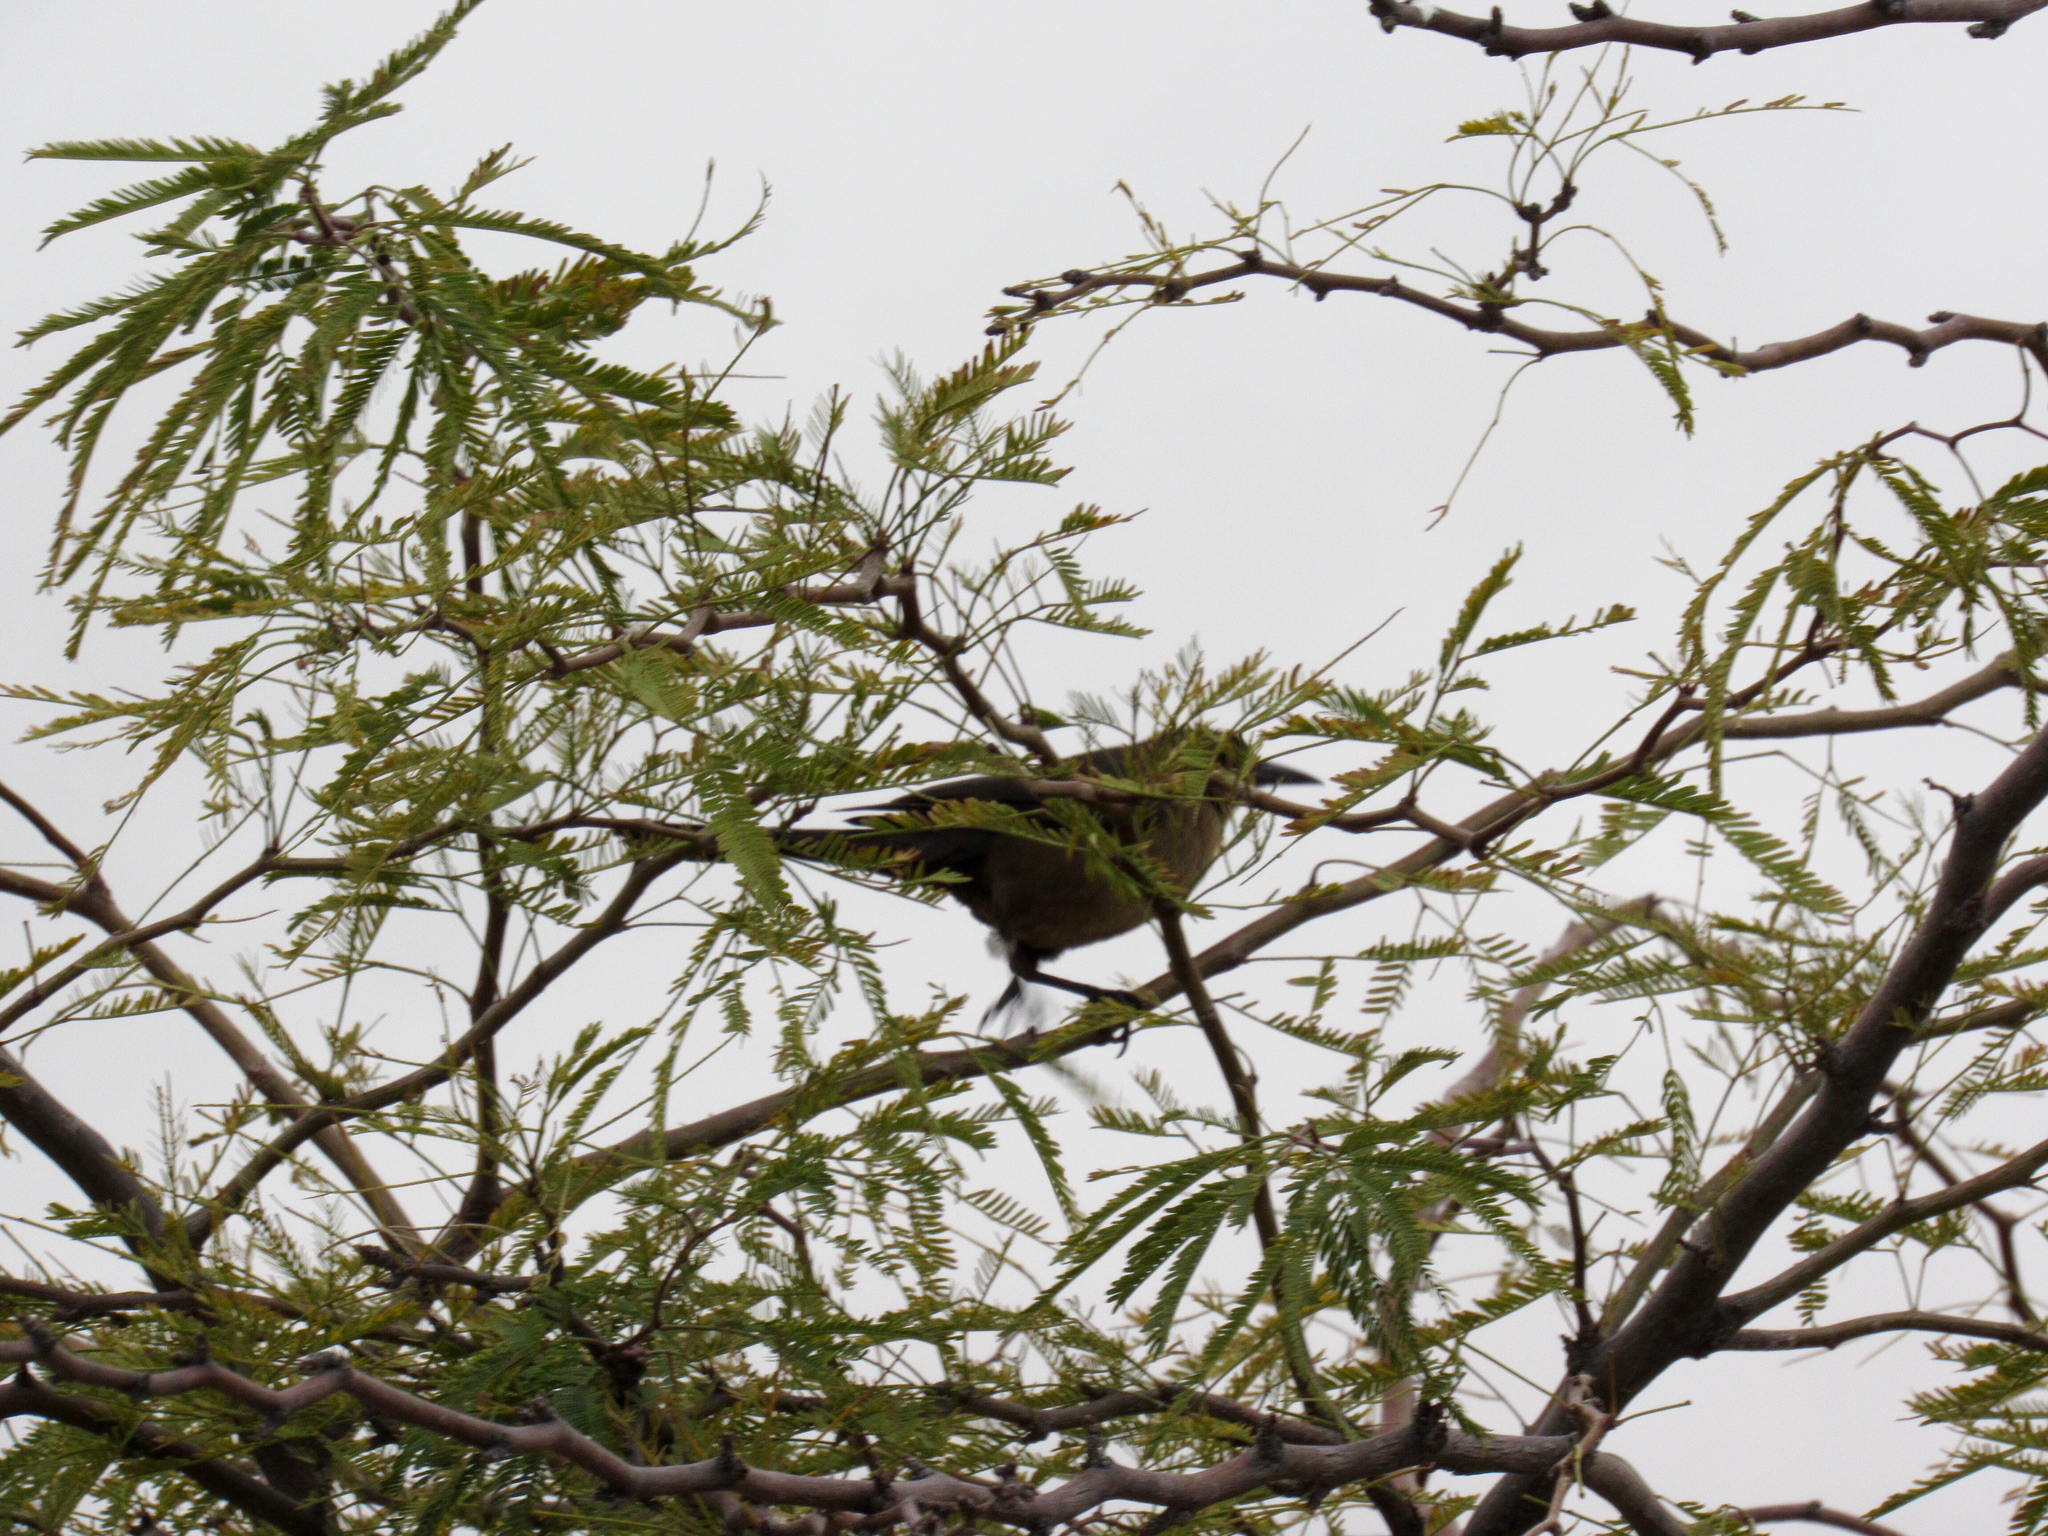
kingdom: Animalia
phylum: Chordata
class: Aves
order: Passeriformes
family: Icteridae
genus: Quiscalus
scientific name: Quiscalus mexicanus
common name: Great-tailed grackle
